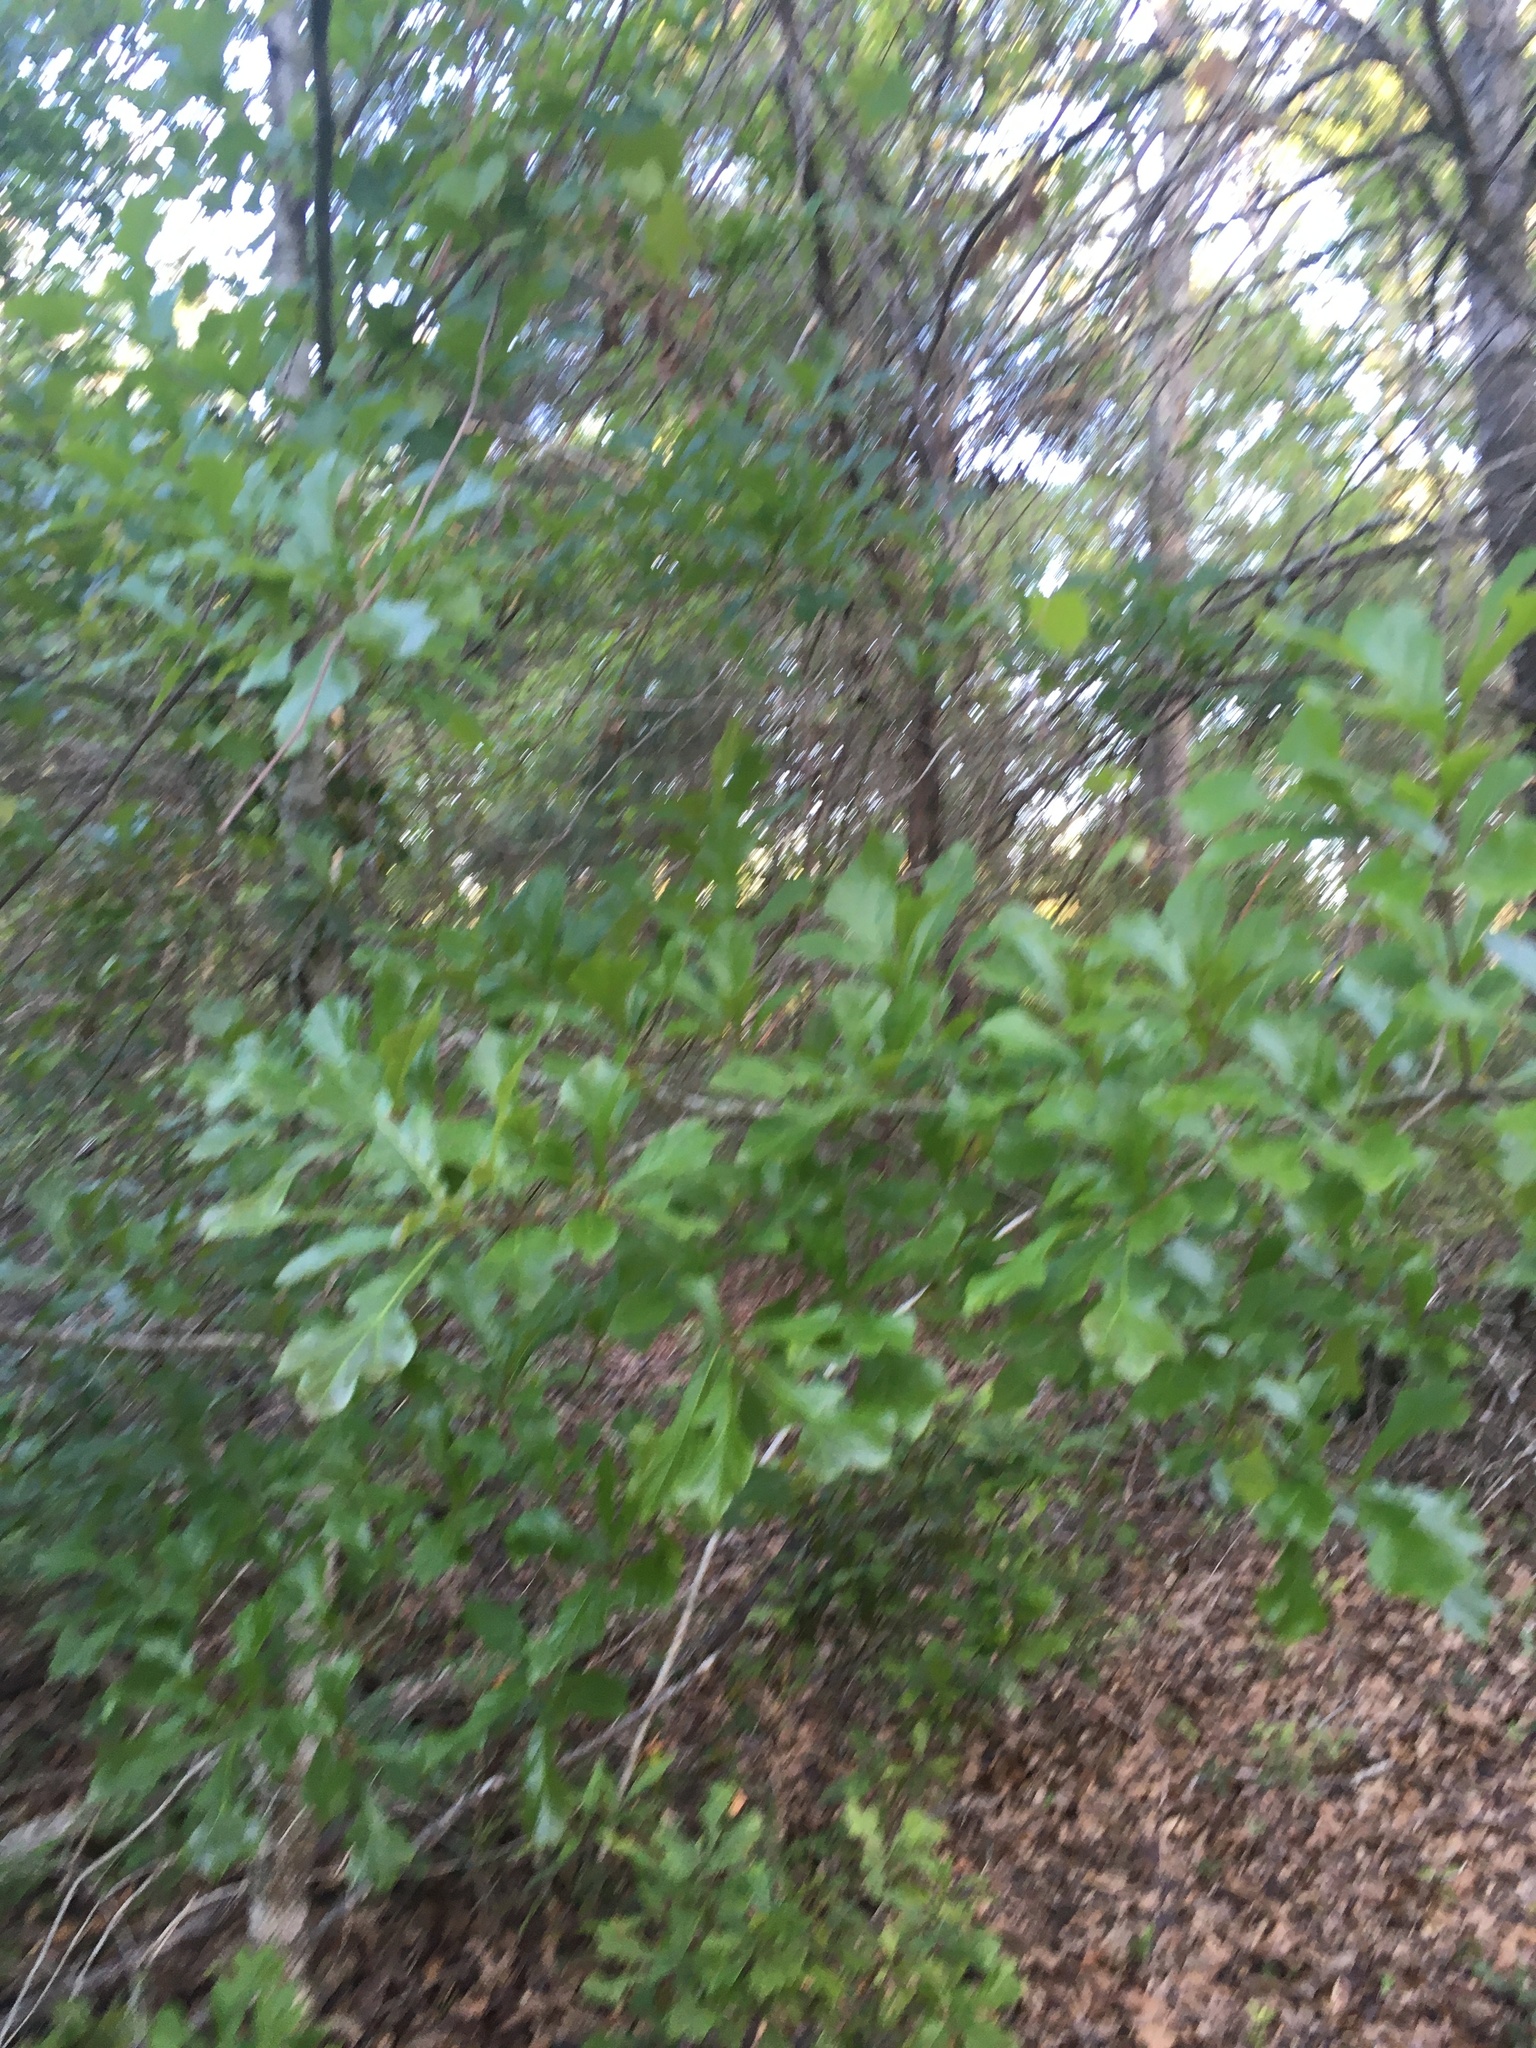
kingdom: Plantae
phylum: Tracheophyta
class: Magnoliopsida
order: Fagales
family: Fagaceae
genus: Quercus
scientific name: Quercus nigra
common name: Water oak
